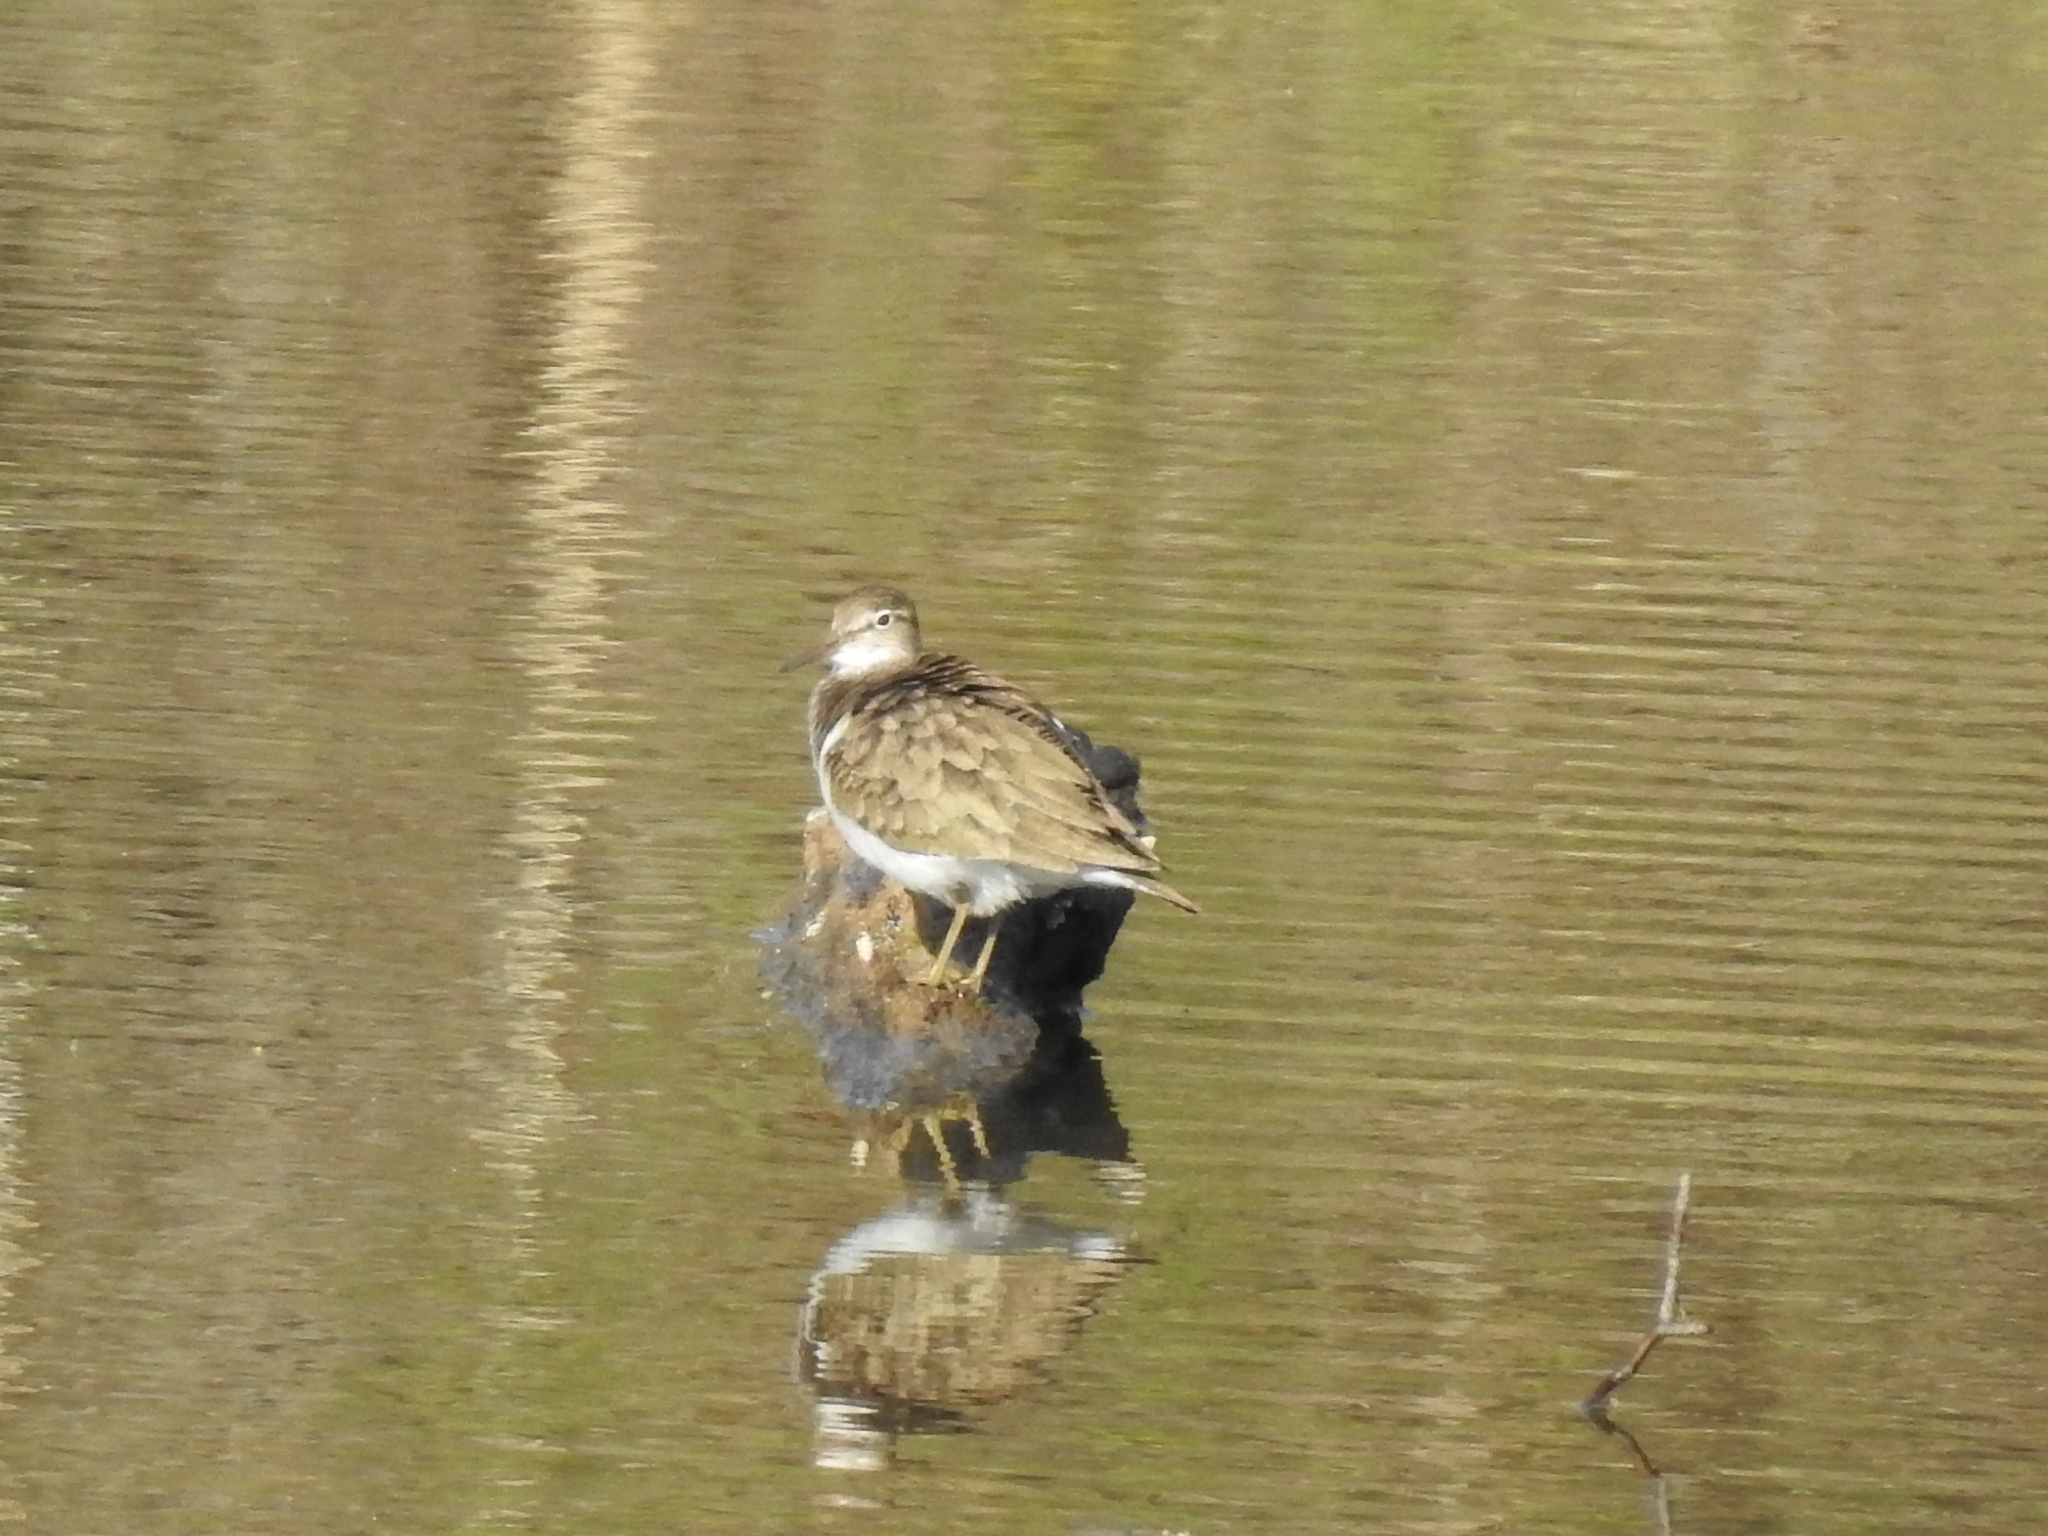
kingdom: Animalia
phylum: Chordata
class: Aves
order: Charadriiformes
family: Scolopacidae
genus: Actitis
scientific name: Actitis hypoleucos
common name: Common sandpiper
